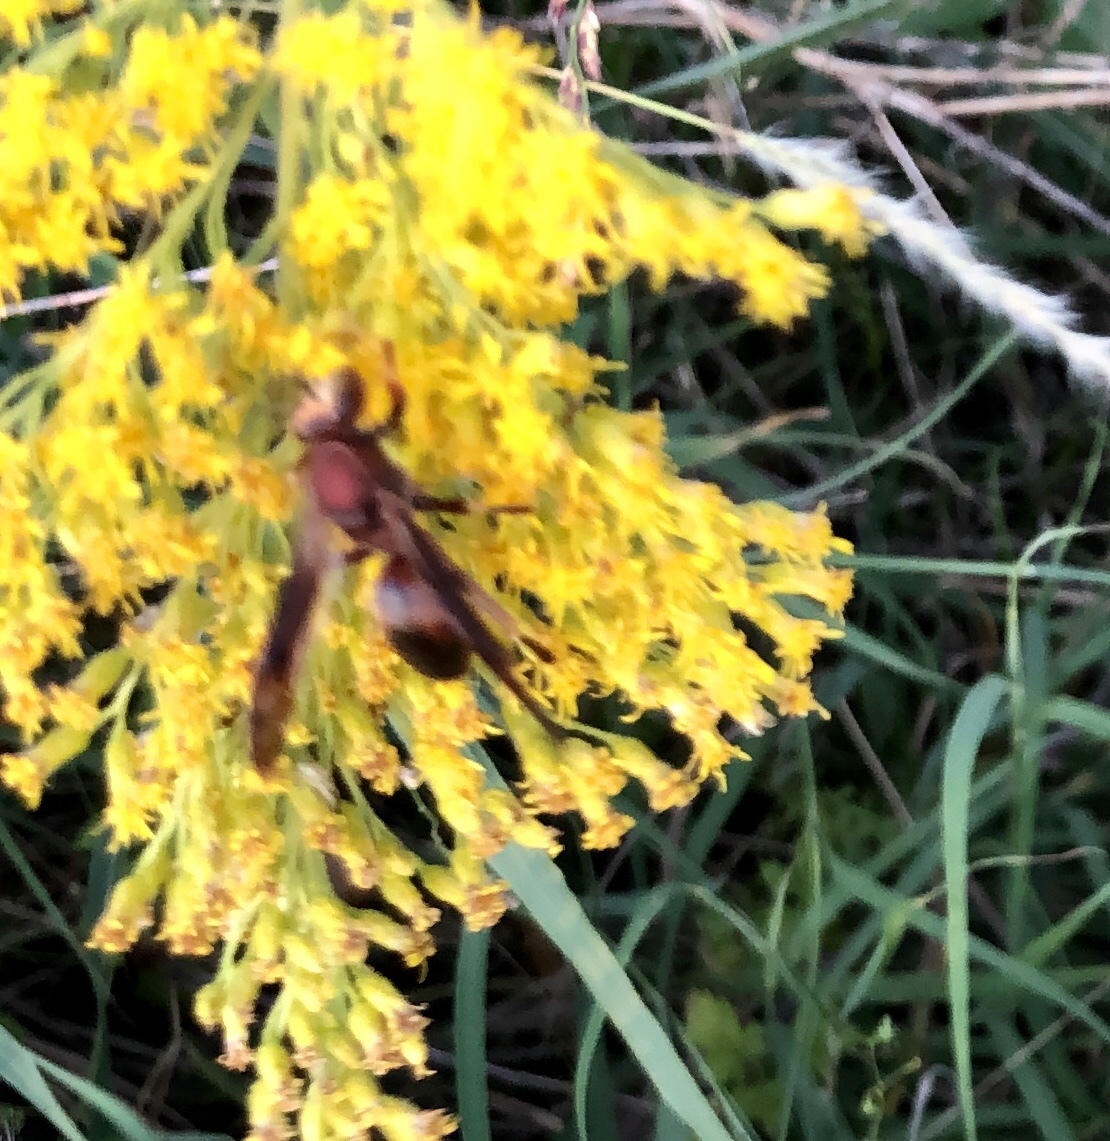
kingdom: Animalia
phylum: Arthropoda
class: Insecta
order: Hymenoptera
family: Vespidae
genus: Fuscopolistes
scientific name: Fuscopolistes
